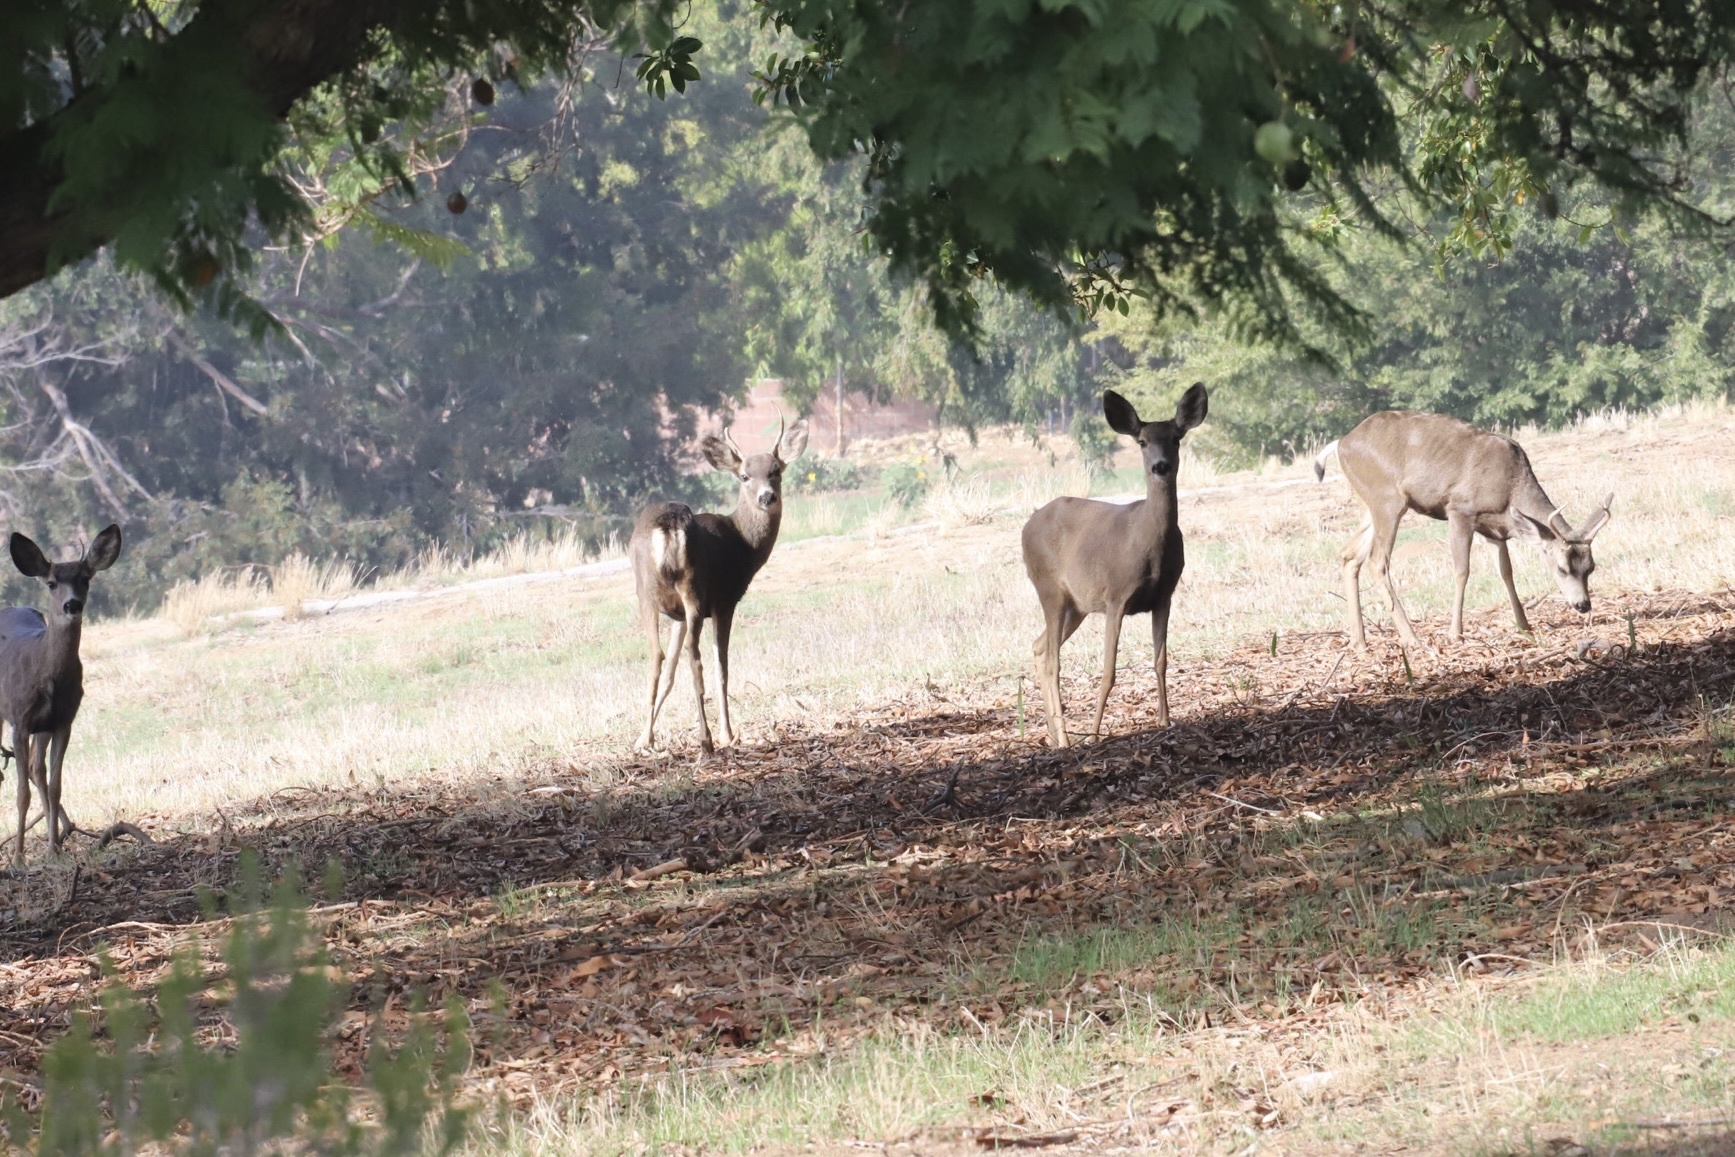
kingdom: Animalia
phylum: Chordata
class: Mammalia
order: Artiodactyla
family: Cervidae
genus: Odocoileus
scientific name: Odocoileus hemionus
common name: Mule deer
